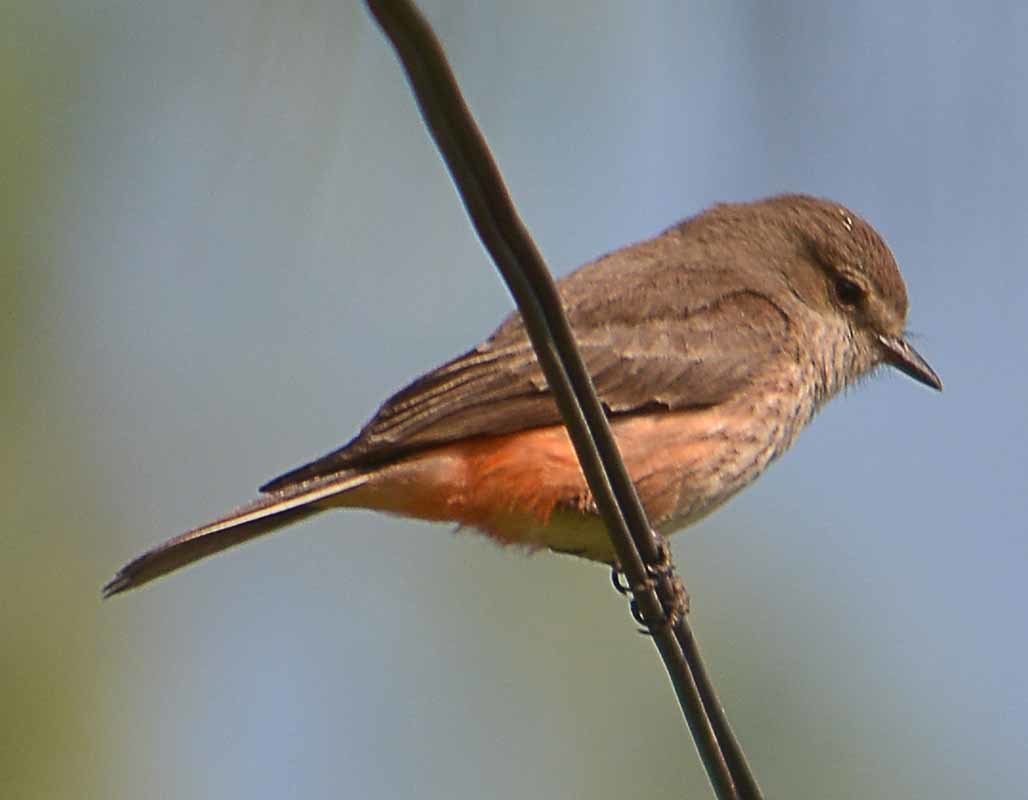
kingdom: Animalia
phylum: Chordata
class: Aves
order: Passeriformes
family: Tyrannidae
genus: Pyrocephalus
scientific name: Pyrocephalus rubinus
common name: Vermilion flycatcher
